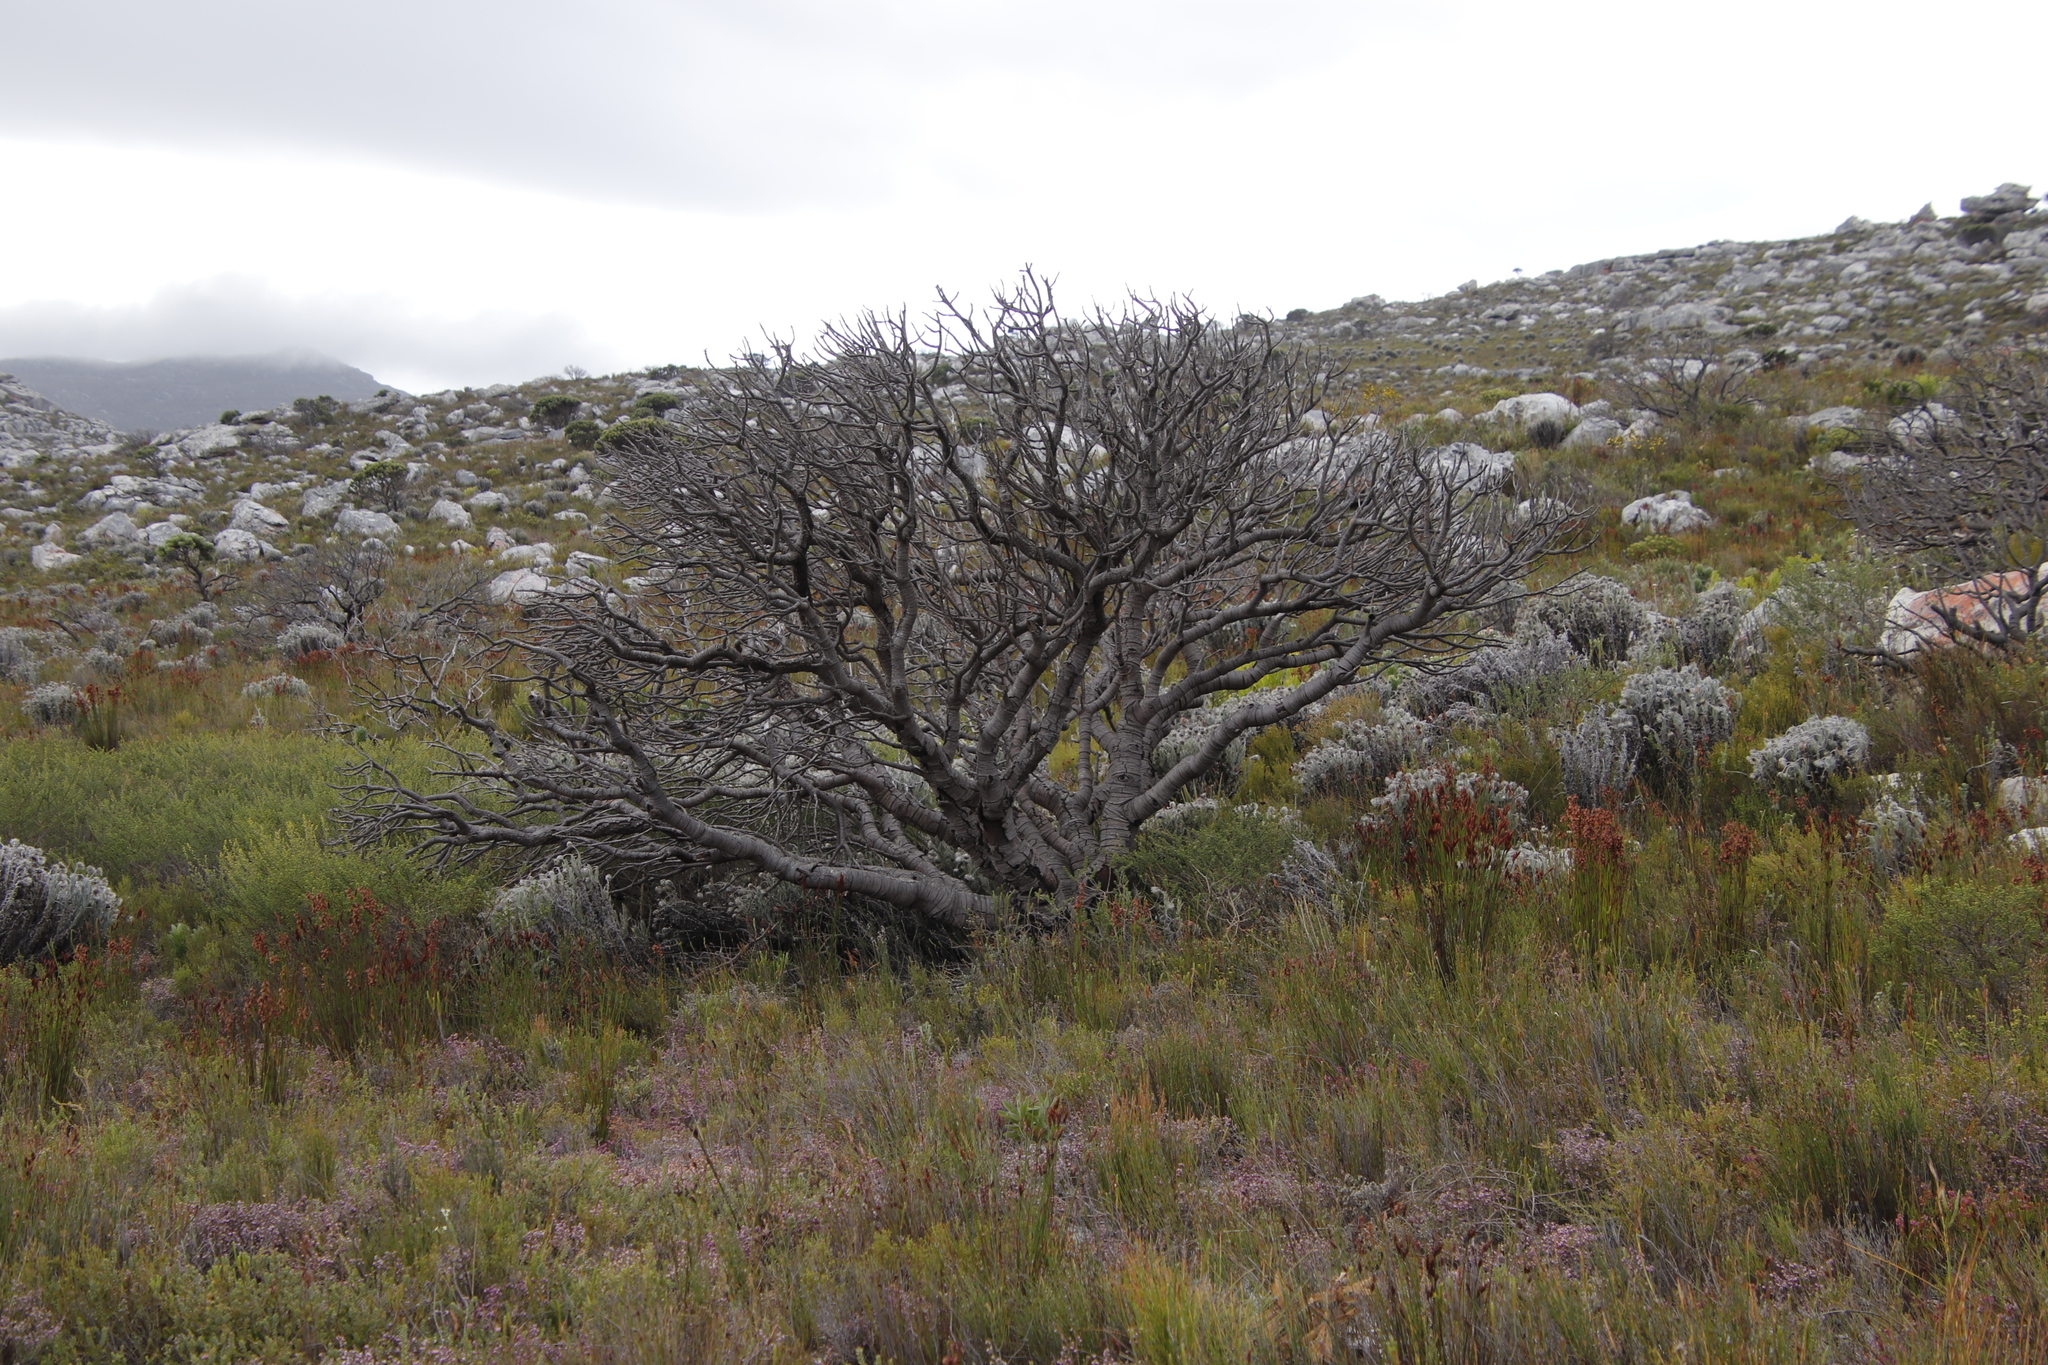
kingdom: Plantae
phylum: Tracheophyta
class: Magnoliopsida
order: Proteales
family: Proteaceae
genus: Mimetes
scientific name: Mimetes fimbriifolius
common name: Fringed bottlebrush
